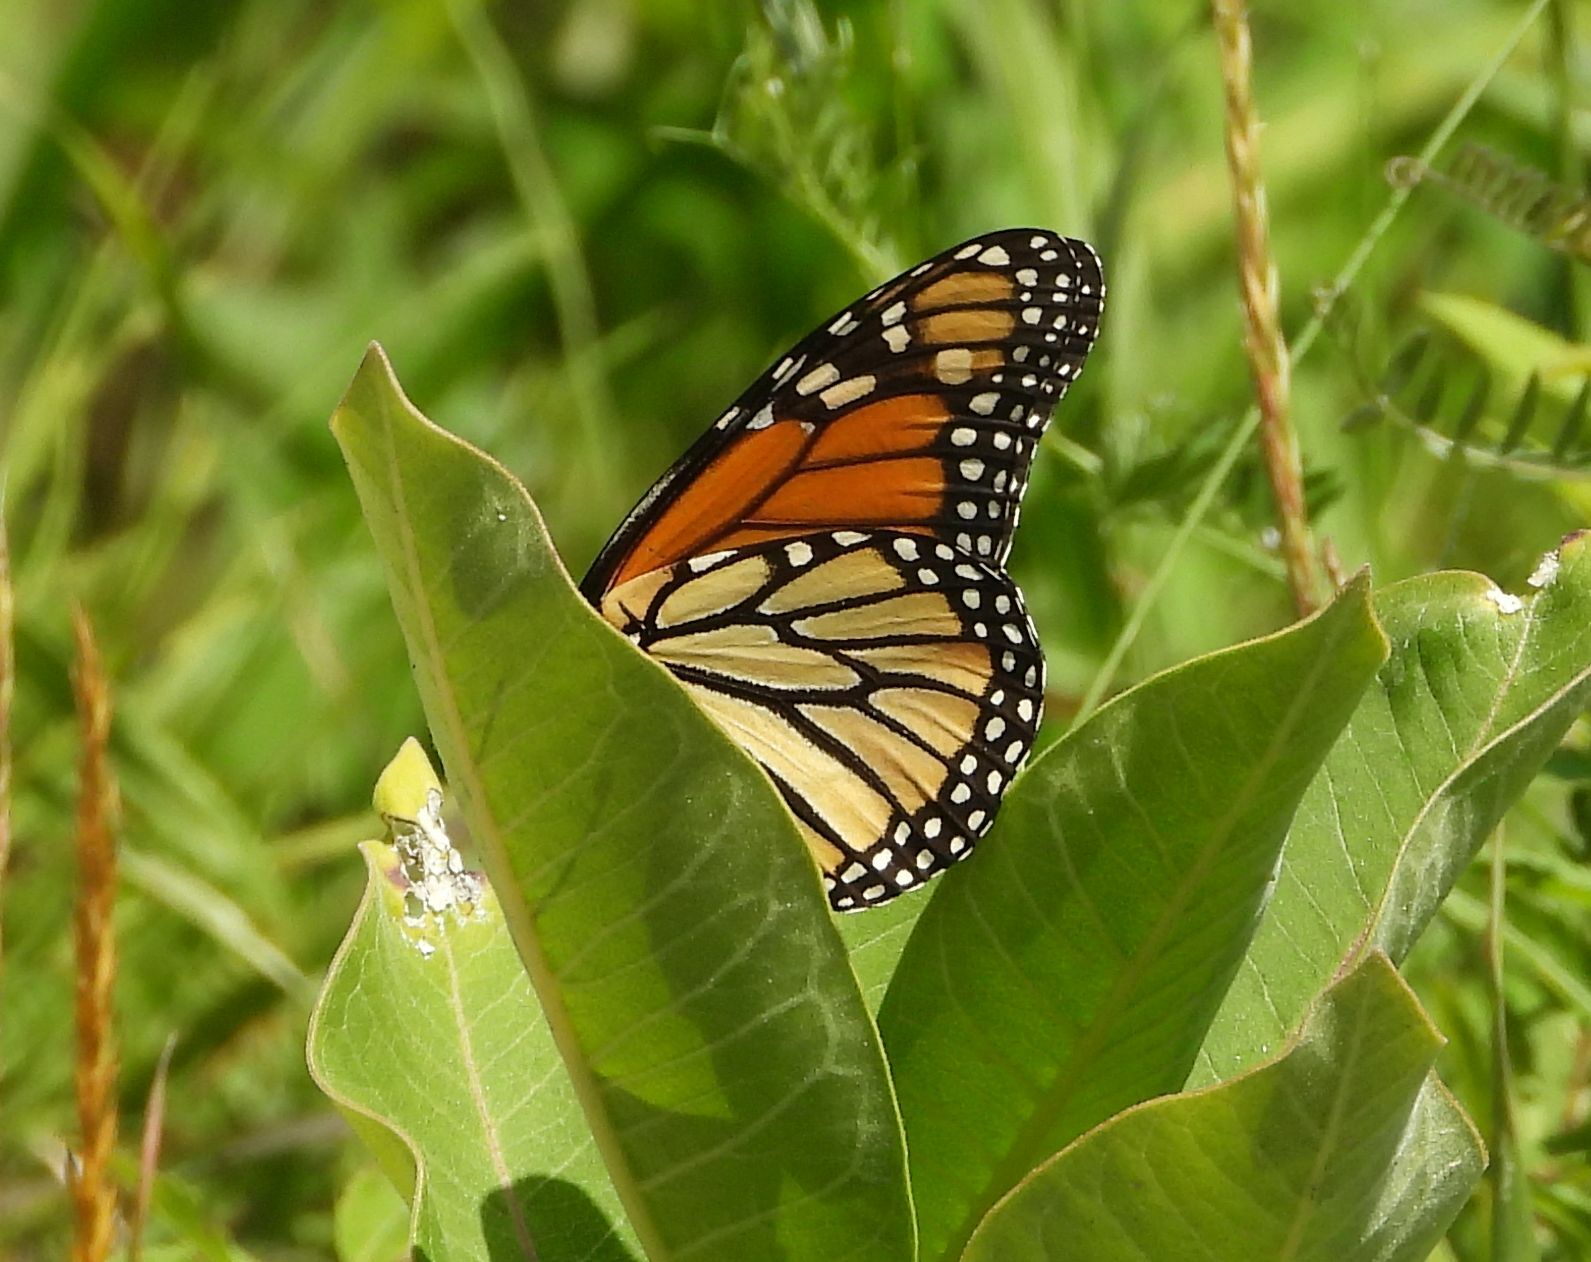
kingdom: Animalia
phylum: Arthropoda
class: Insecta
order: Lepidoptera
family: Nymphalidae
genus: Danaus
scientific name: Danaus plexippus
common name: Monarch
